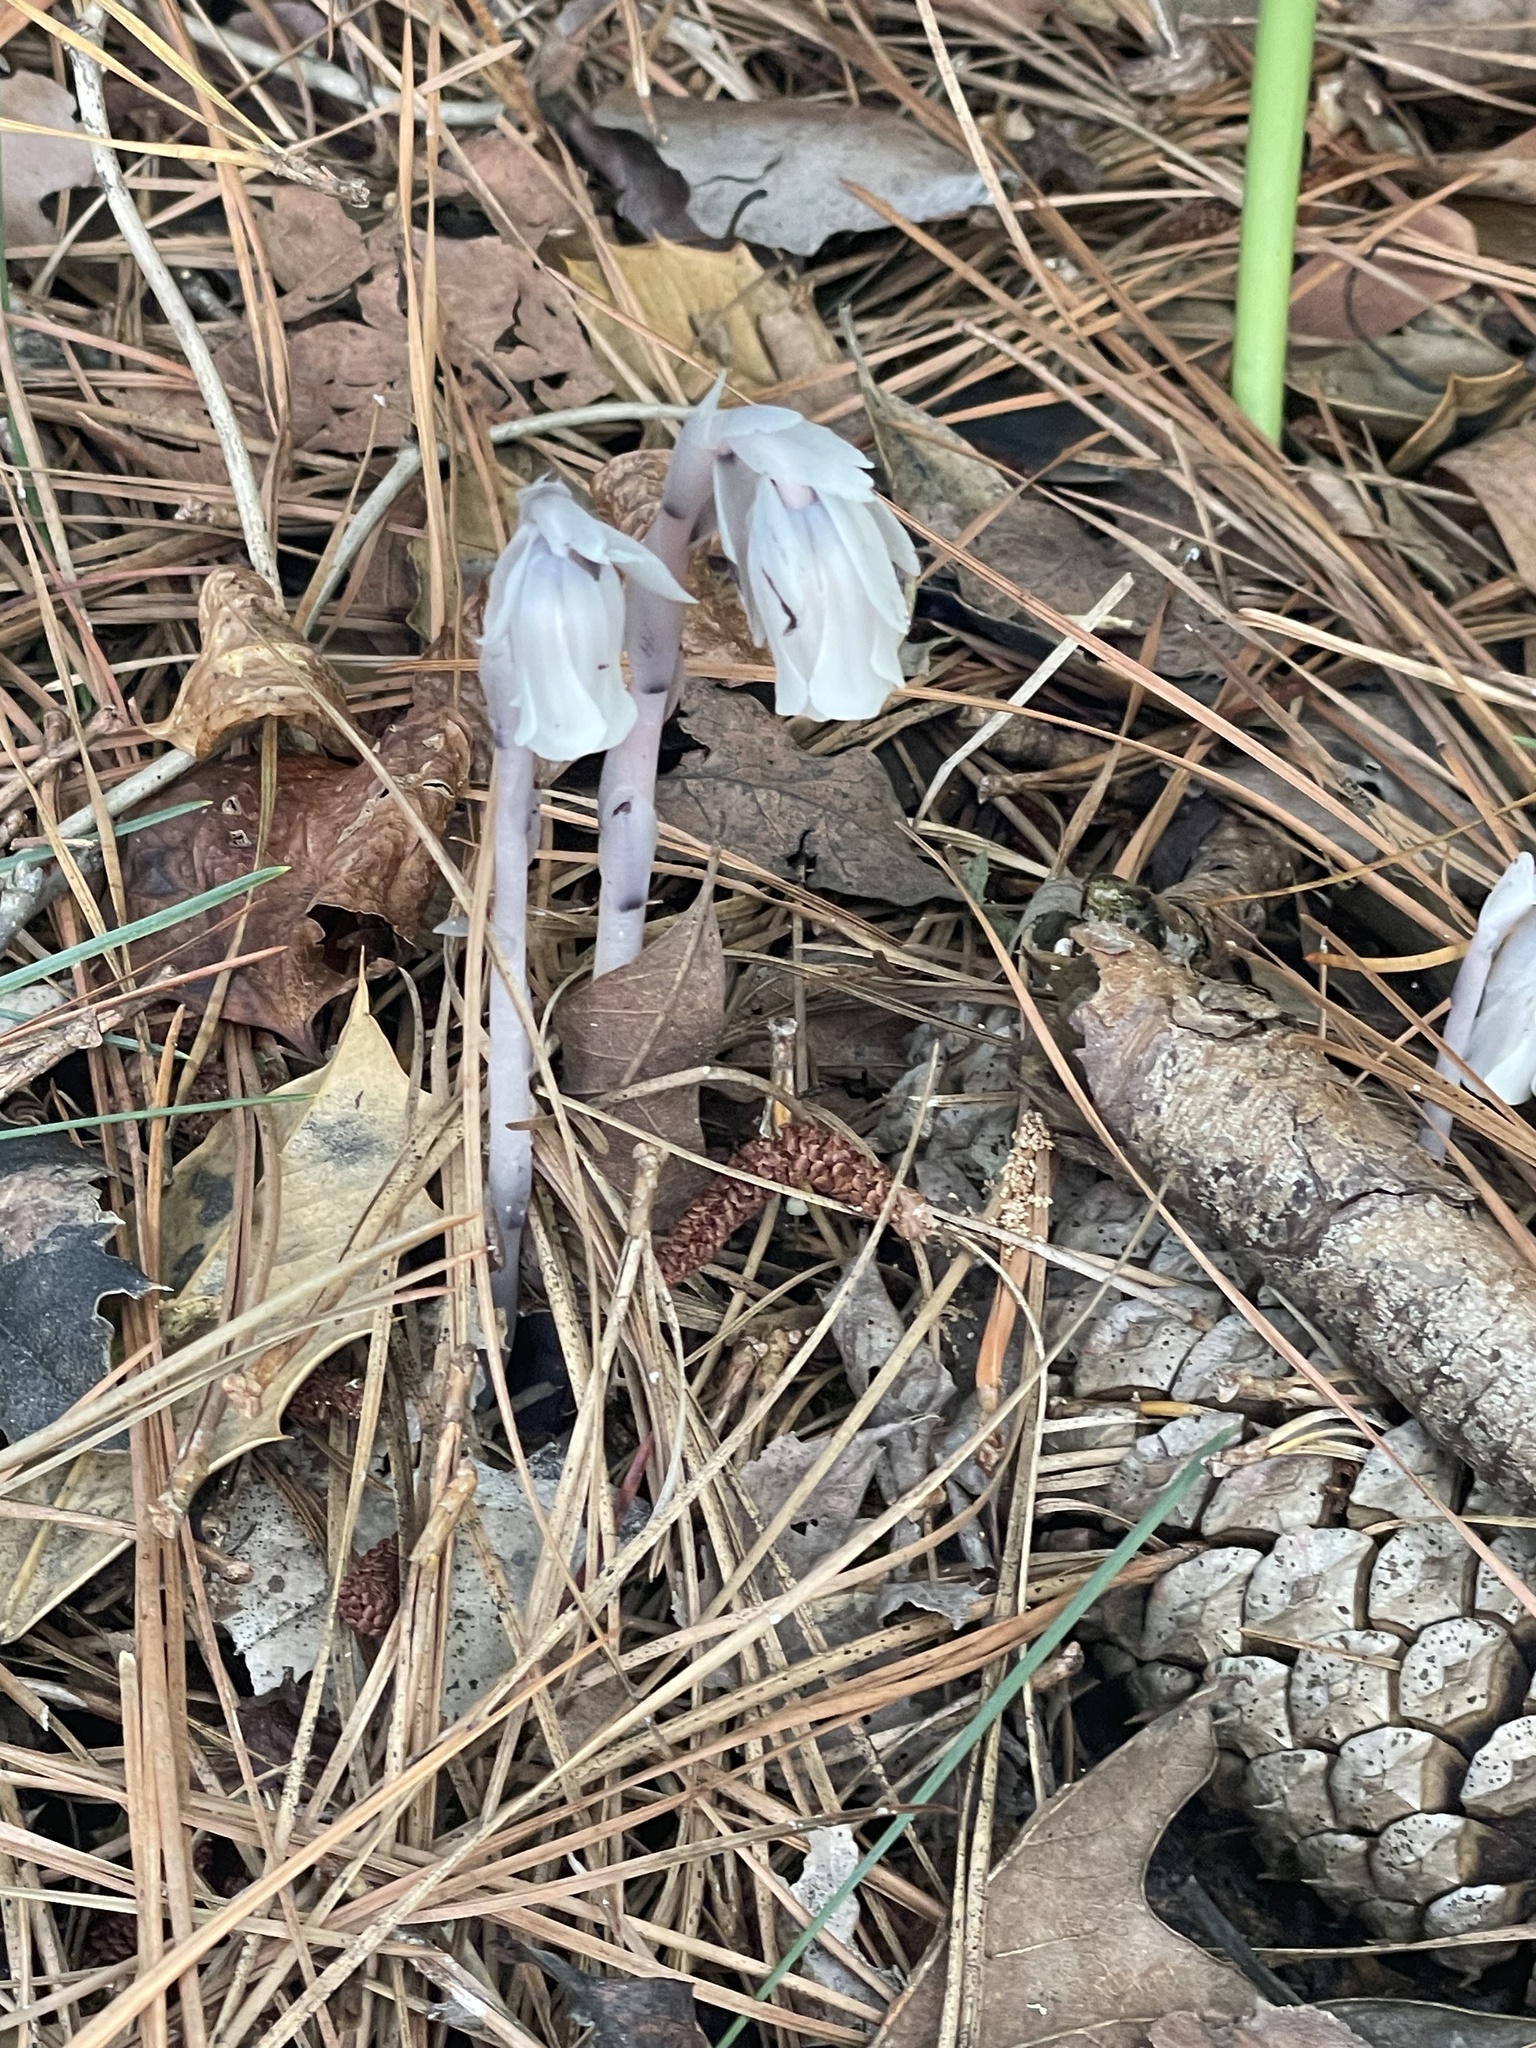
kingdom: Plantae
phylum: Tracheophyta
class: Magnoliopsida
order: Ericales
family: Ericaceae
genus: Monotropa
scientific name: Monotropa uniflora
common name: Convulsion root
